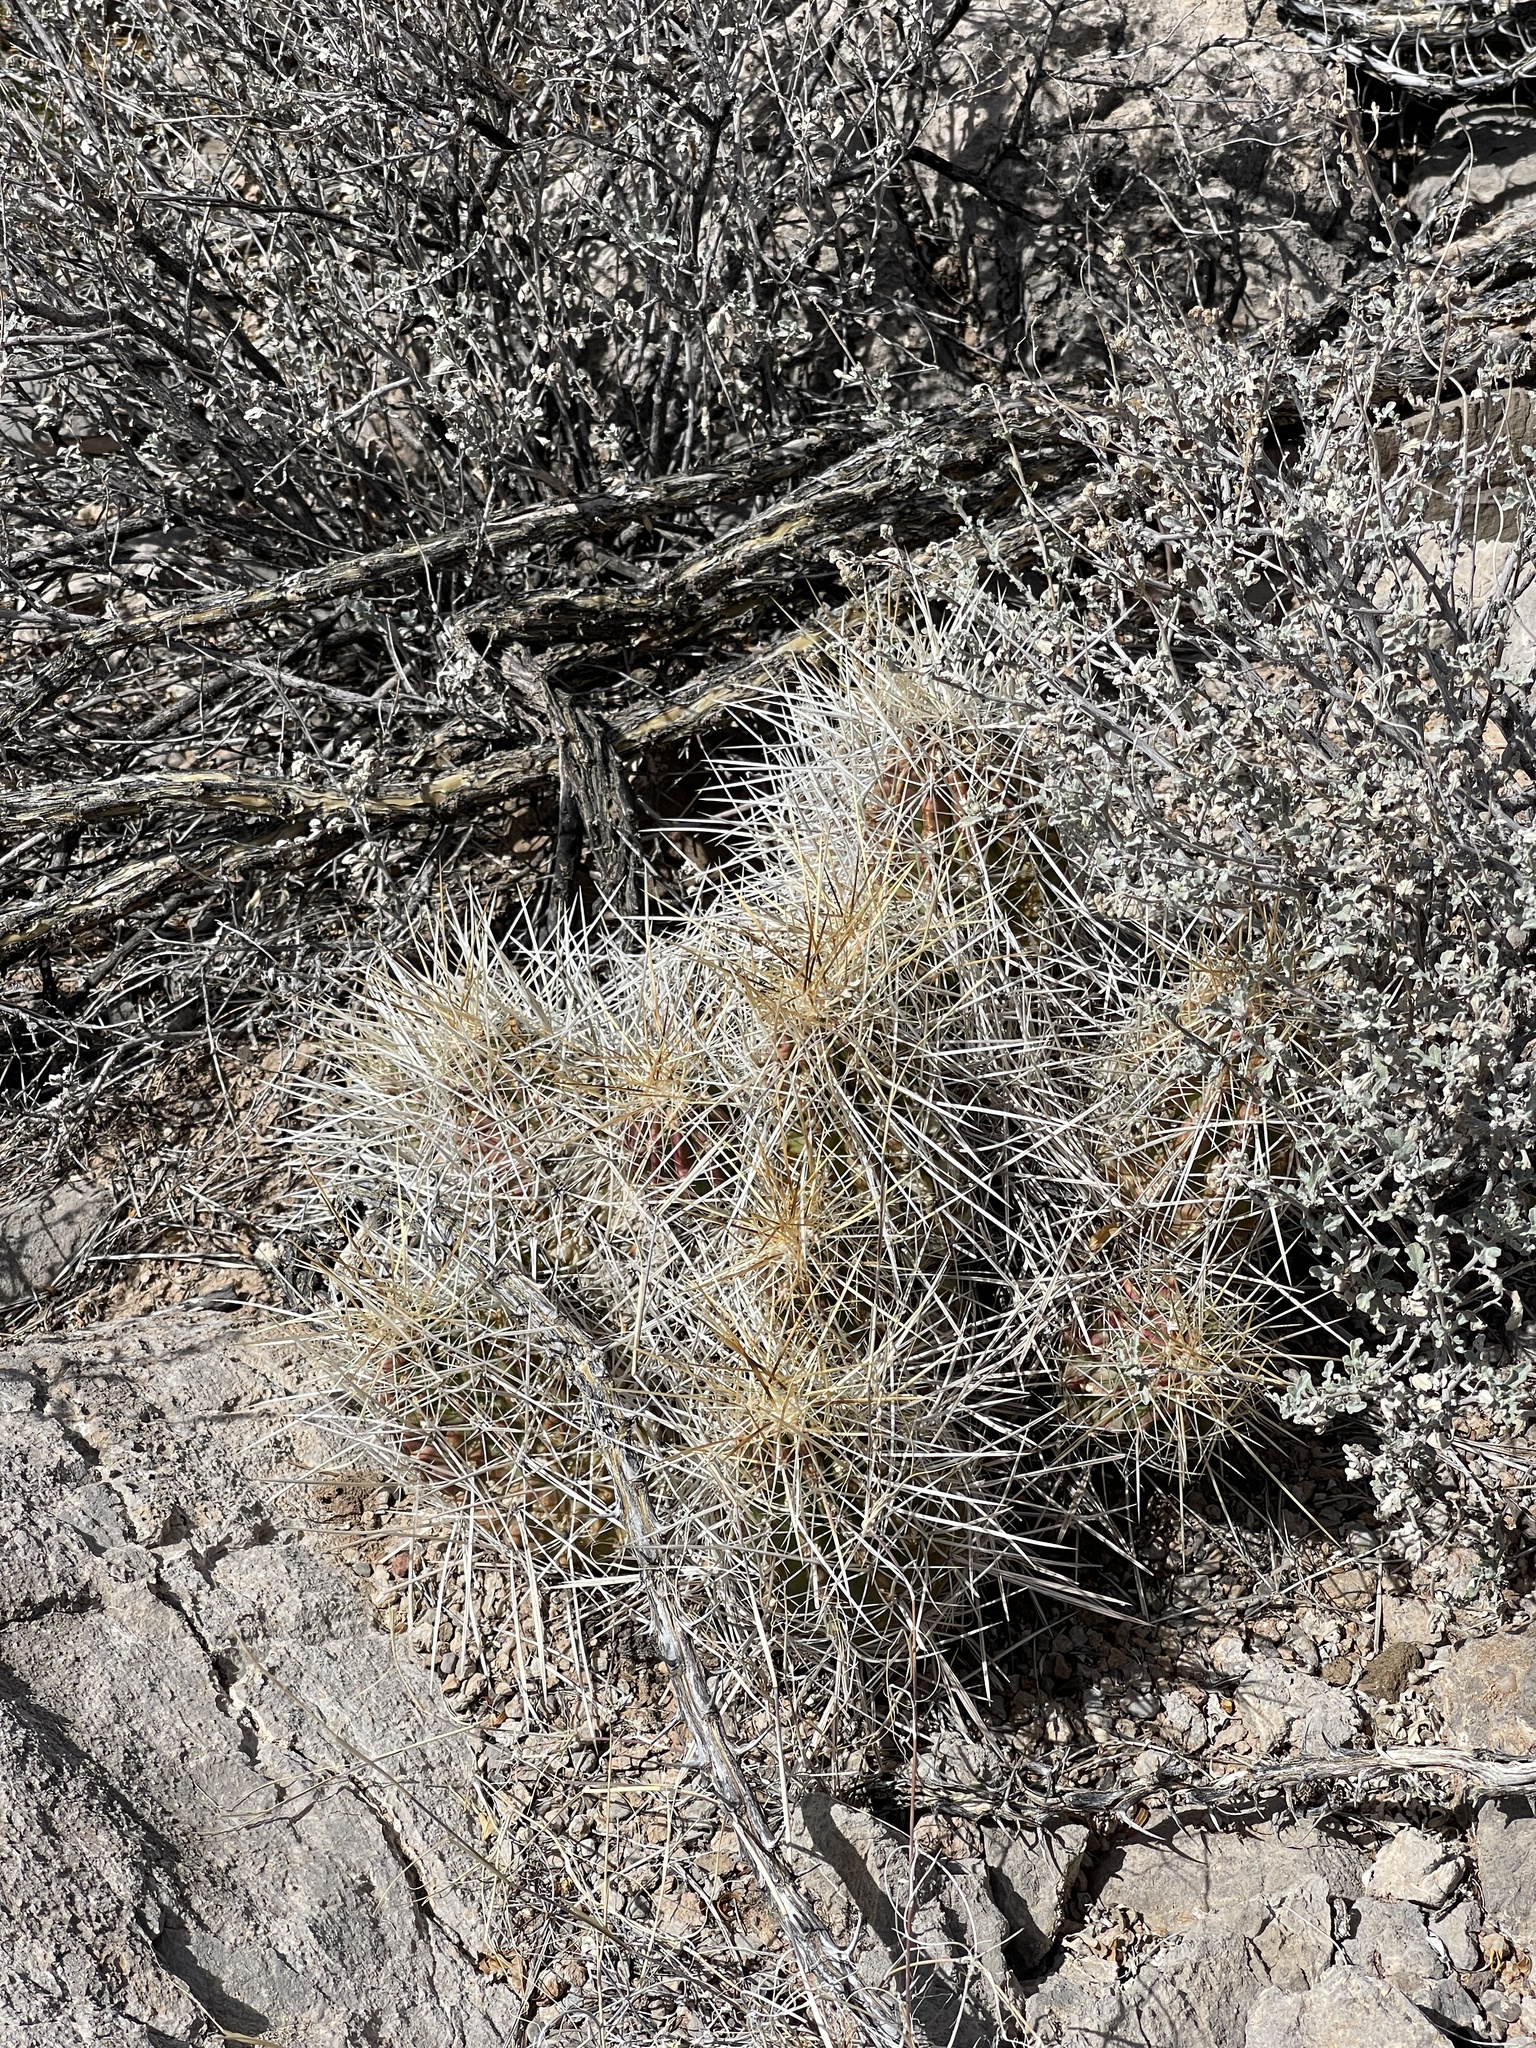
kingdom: Plantae
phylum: Tracheophyta
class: Magnoliopsida
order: Caryophyllales
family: Cactaceae
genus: Echinocereus
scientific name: Echinocereus stramineus
